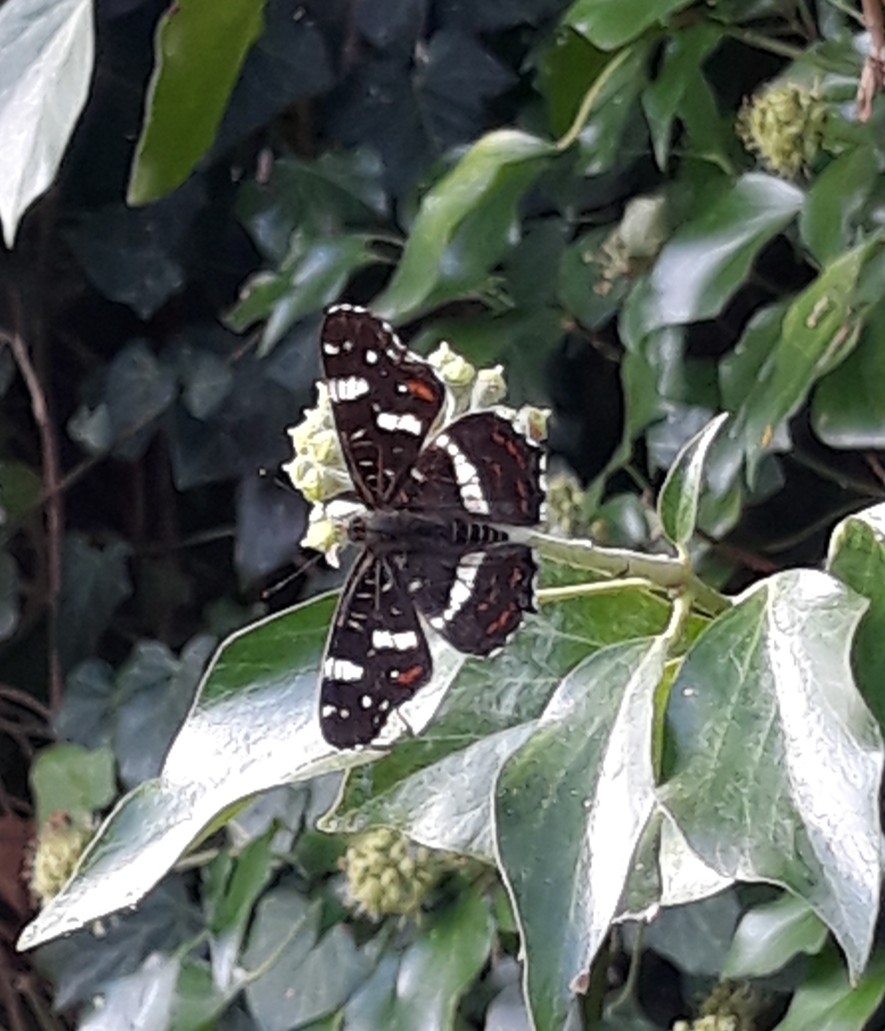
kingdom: Animalia
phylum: Arthropoda
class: Insecta
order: Lepidoptera
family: Nymphalidae
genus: Araschnia
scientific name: Araschnia levana
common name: Map butterfly
